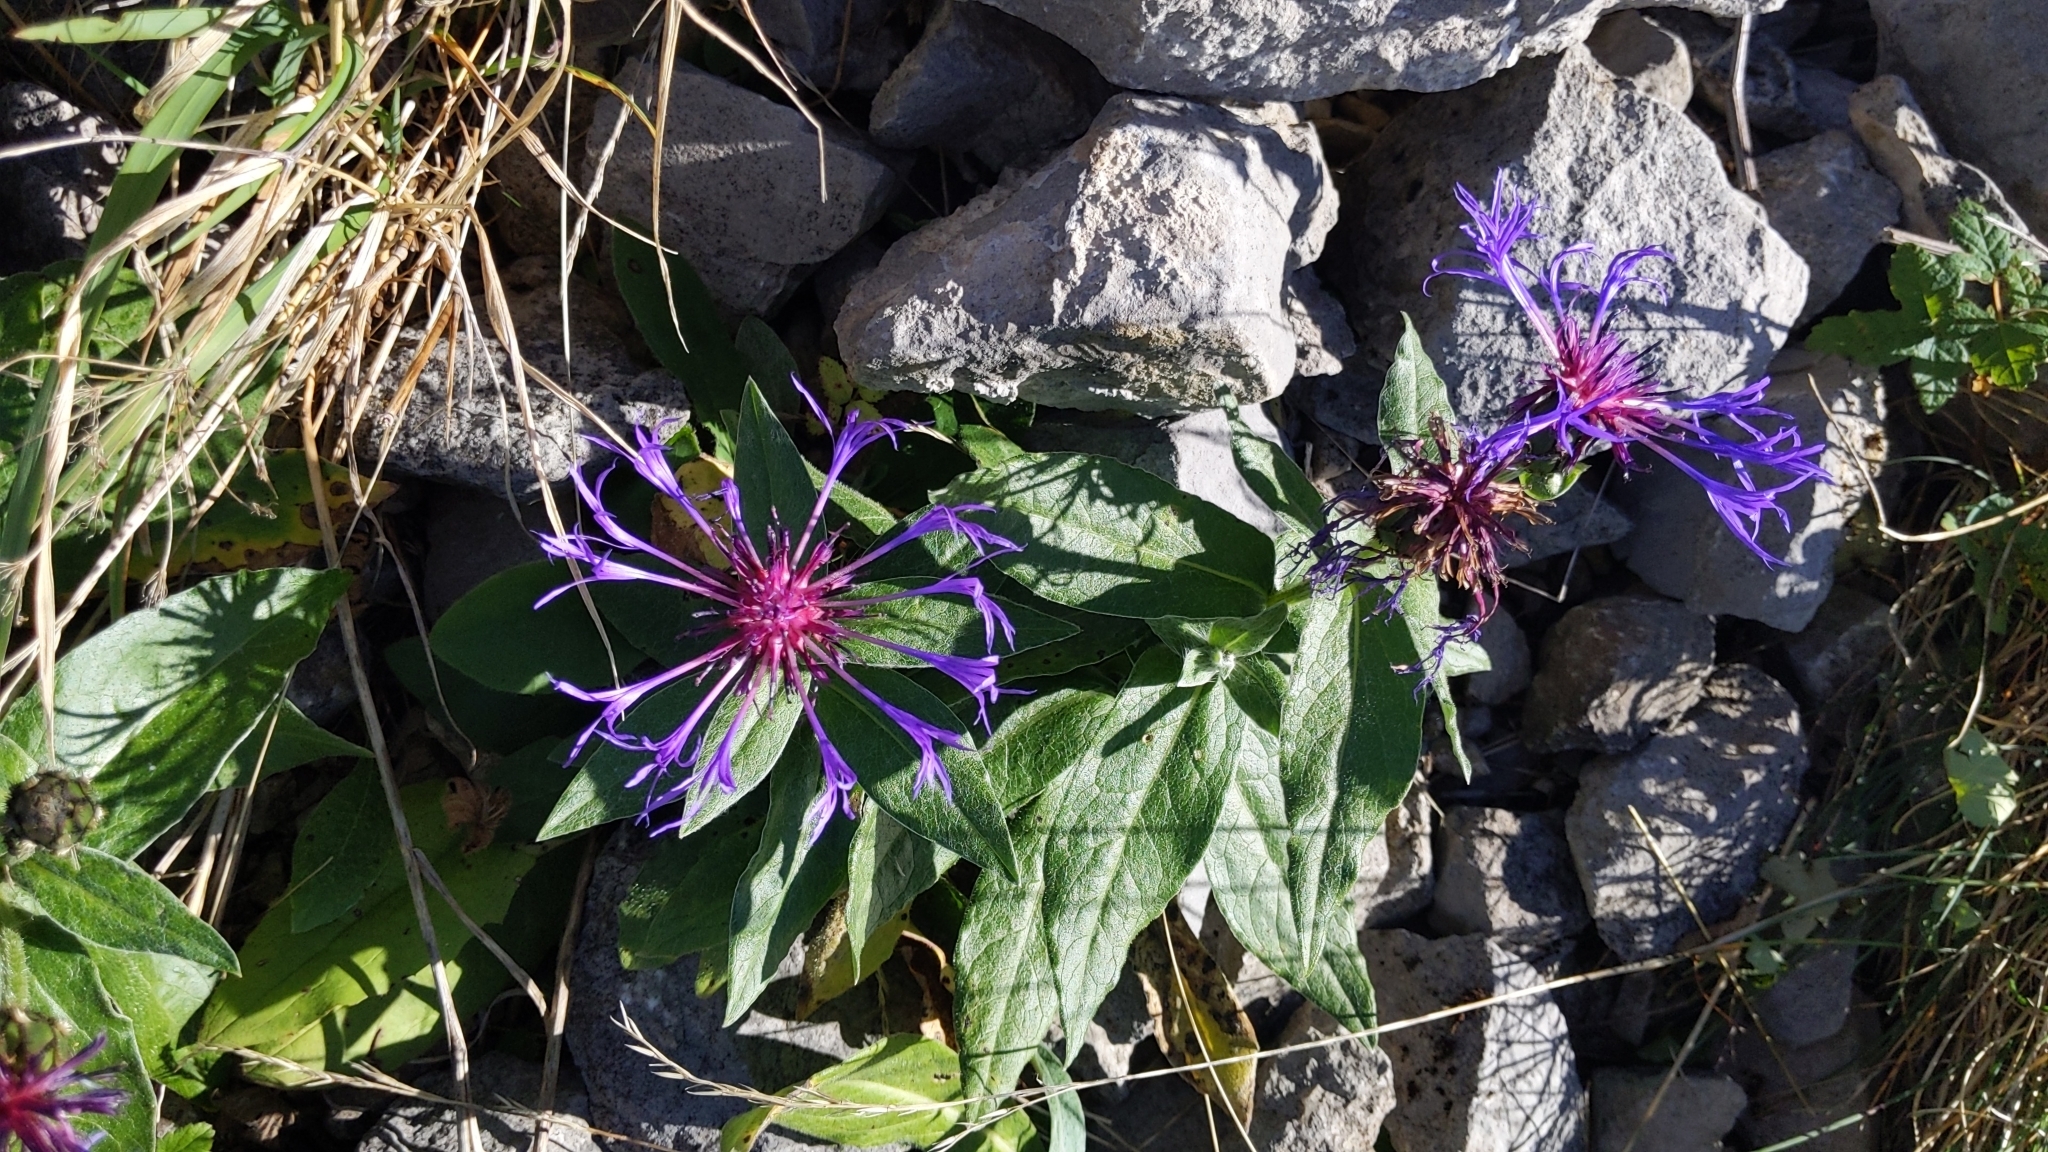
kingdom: Plantae
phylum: Tracheophyta
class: Magnoliopsida
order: Asterales
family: Asteraceae
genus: Centaurea
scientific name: Centaurea montana
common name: Perennial cornflower
